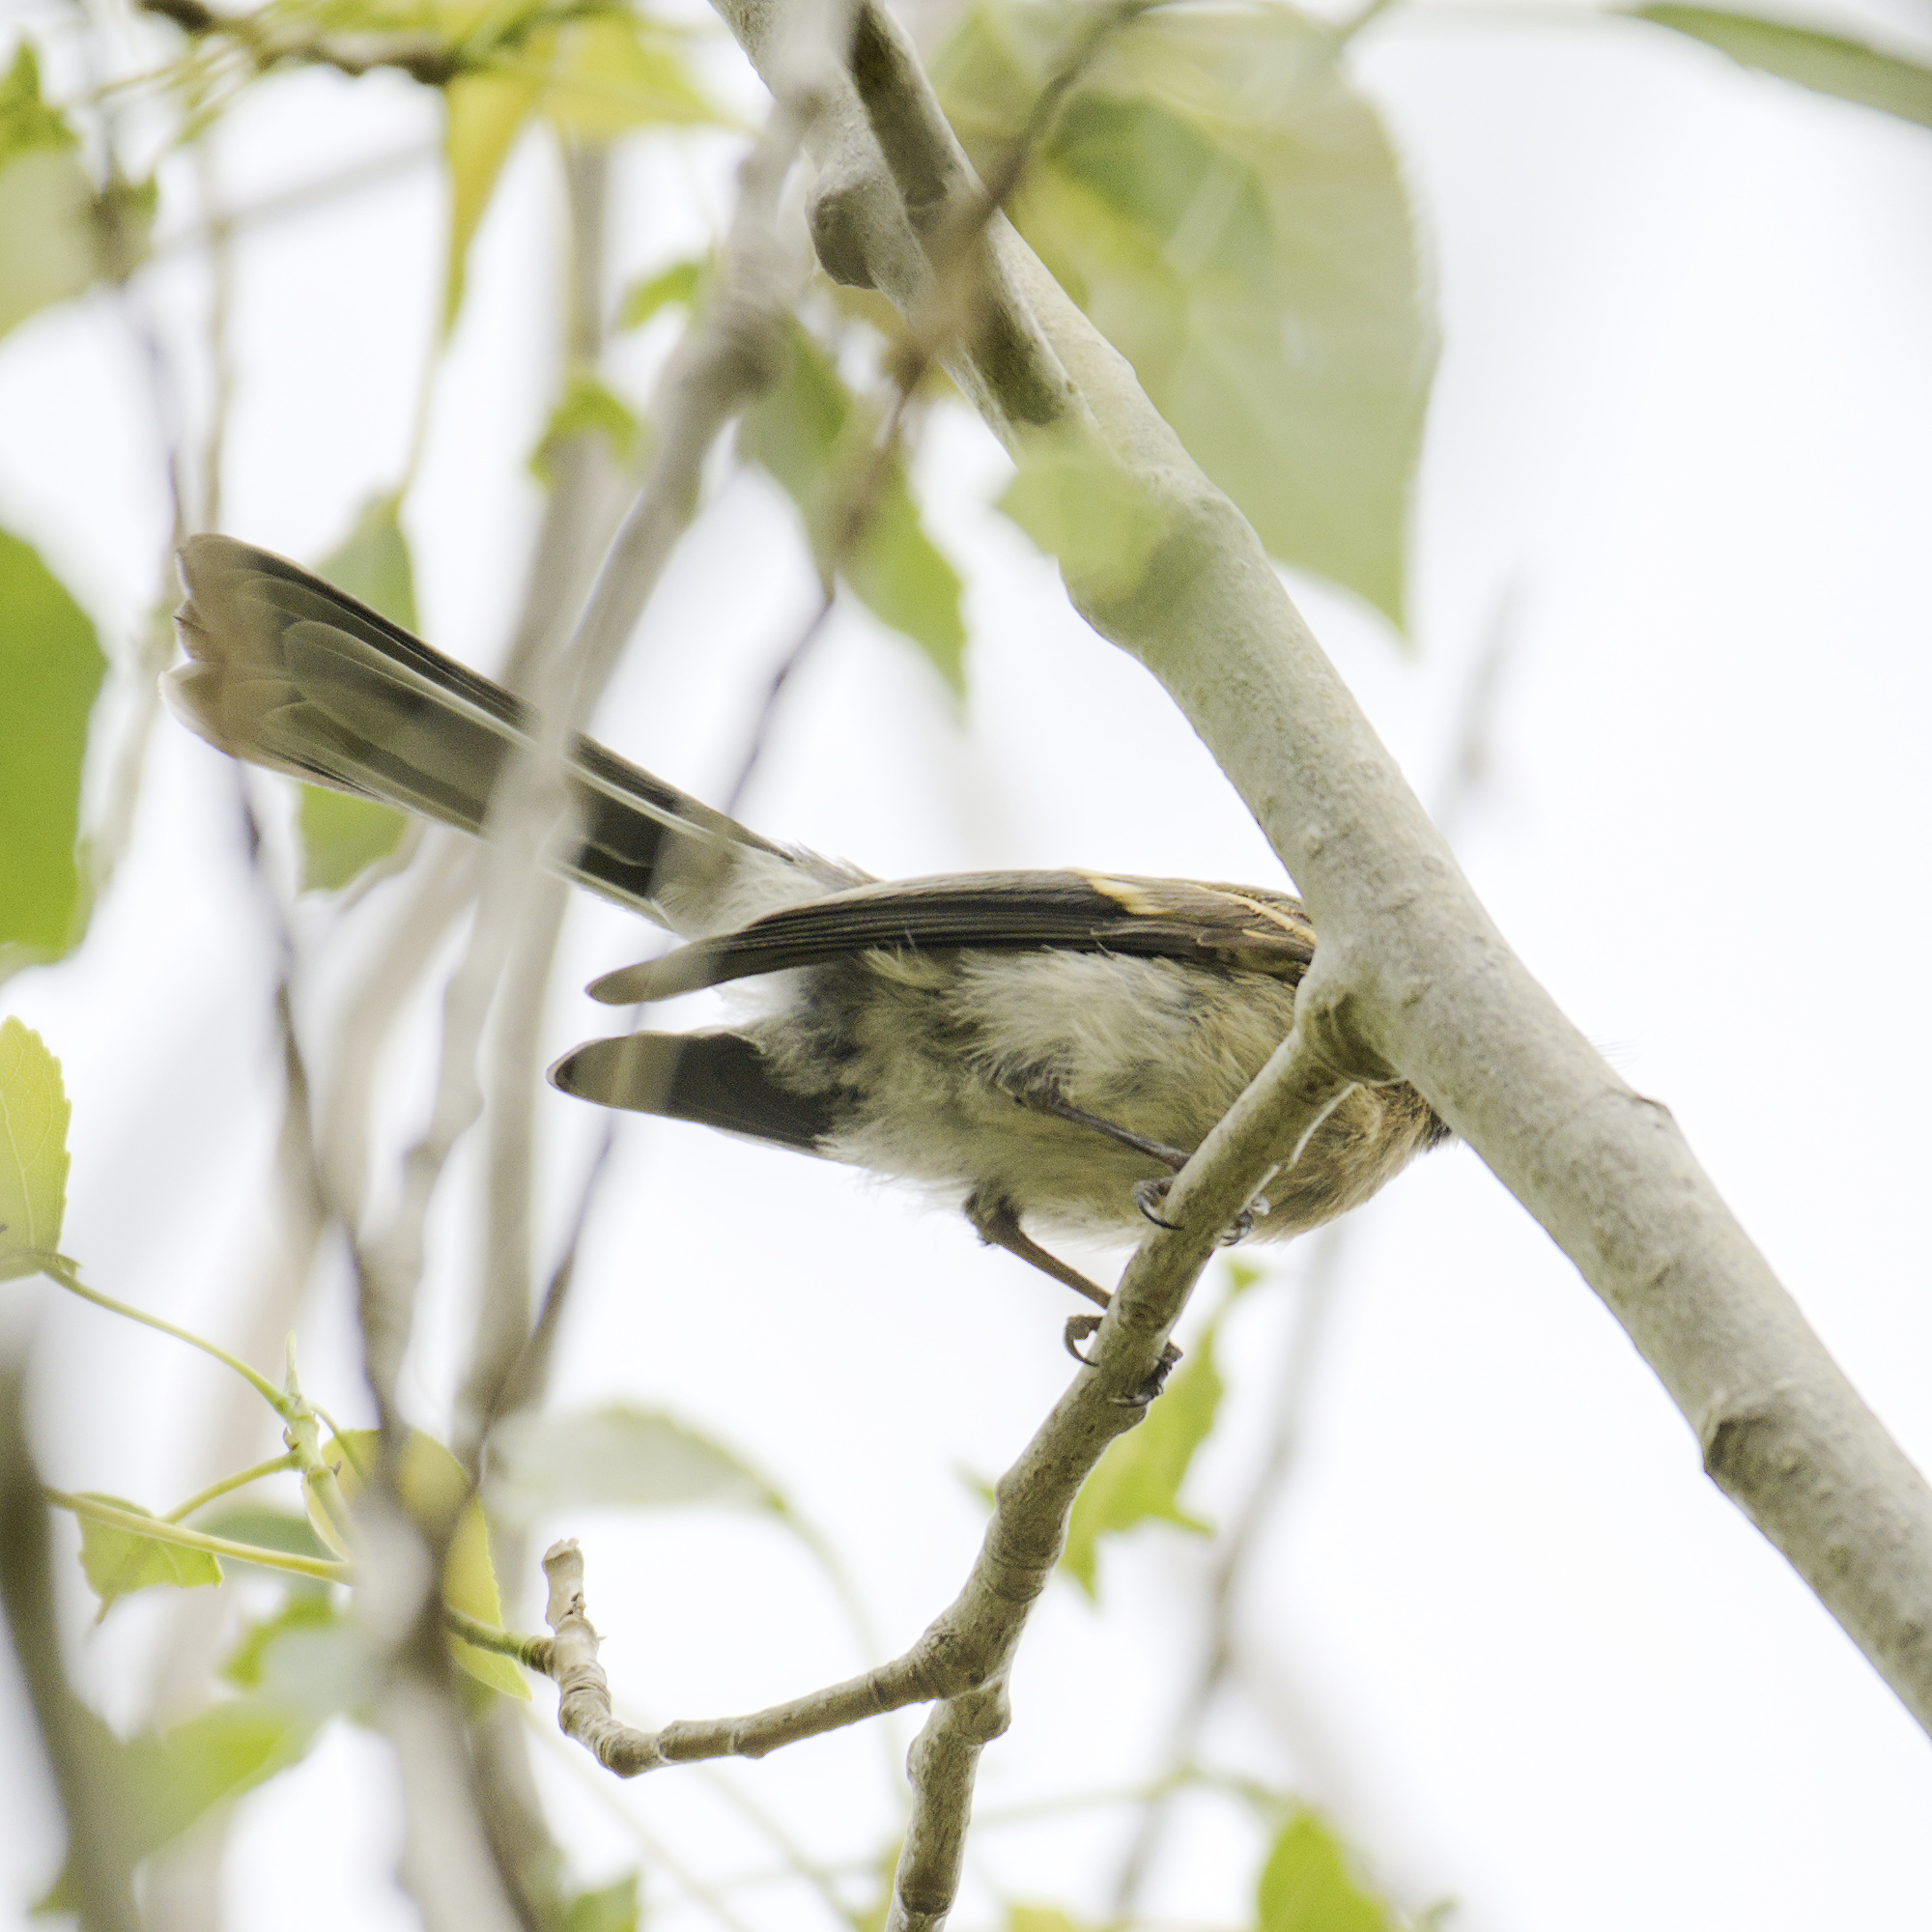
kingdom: Animalia
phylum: Chordata
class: Aves
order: Passeriformes
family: Rhipiduridae
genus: Rhipidura
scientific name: Rhipidura albiscapa
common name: Grey fantail
